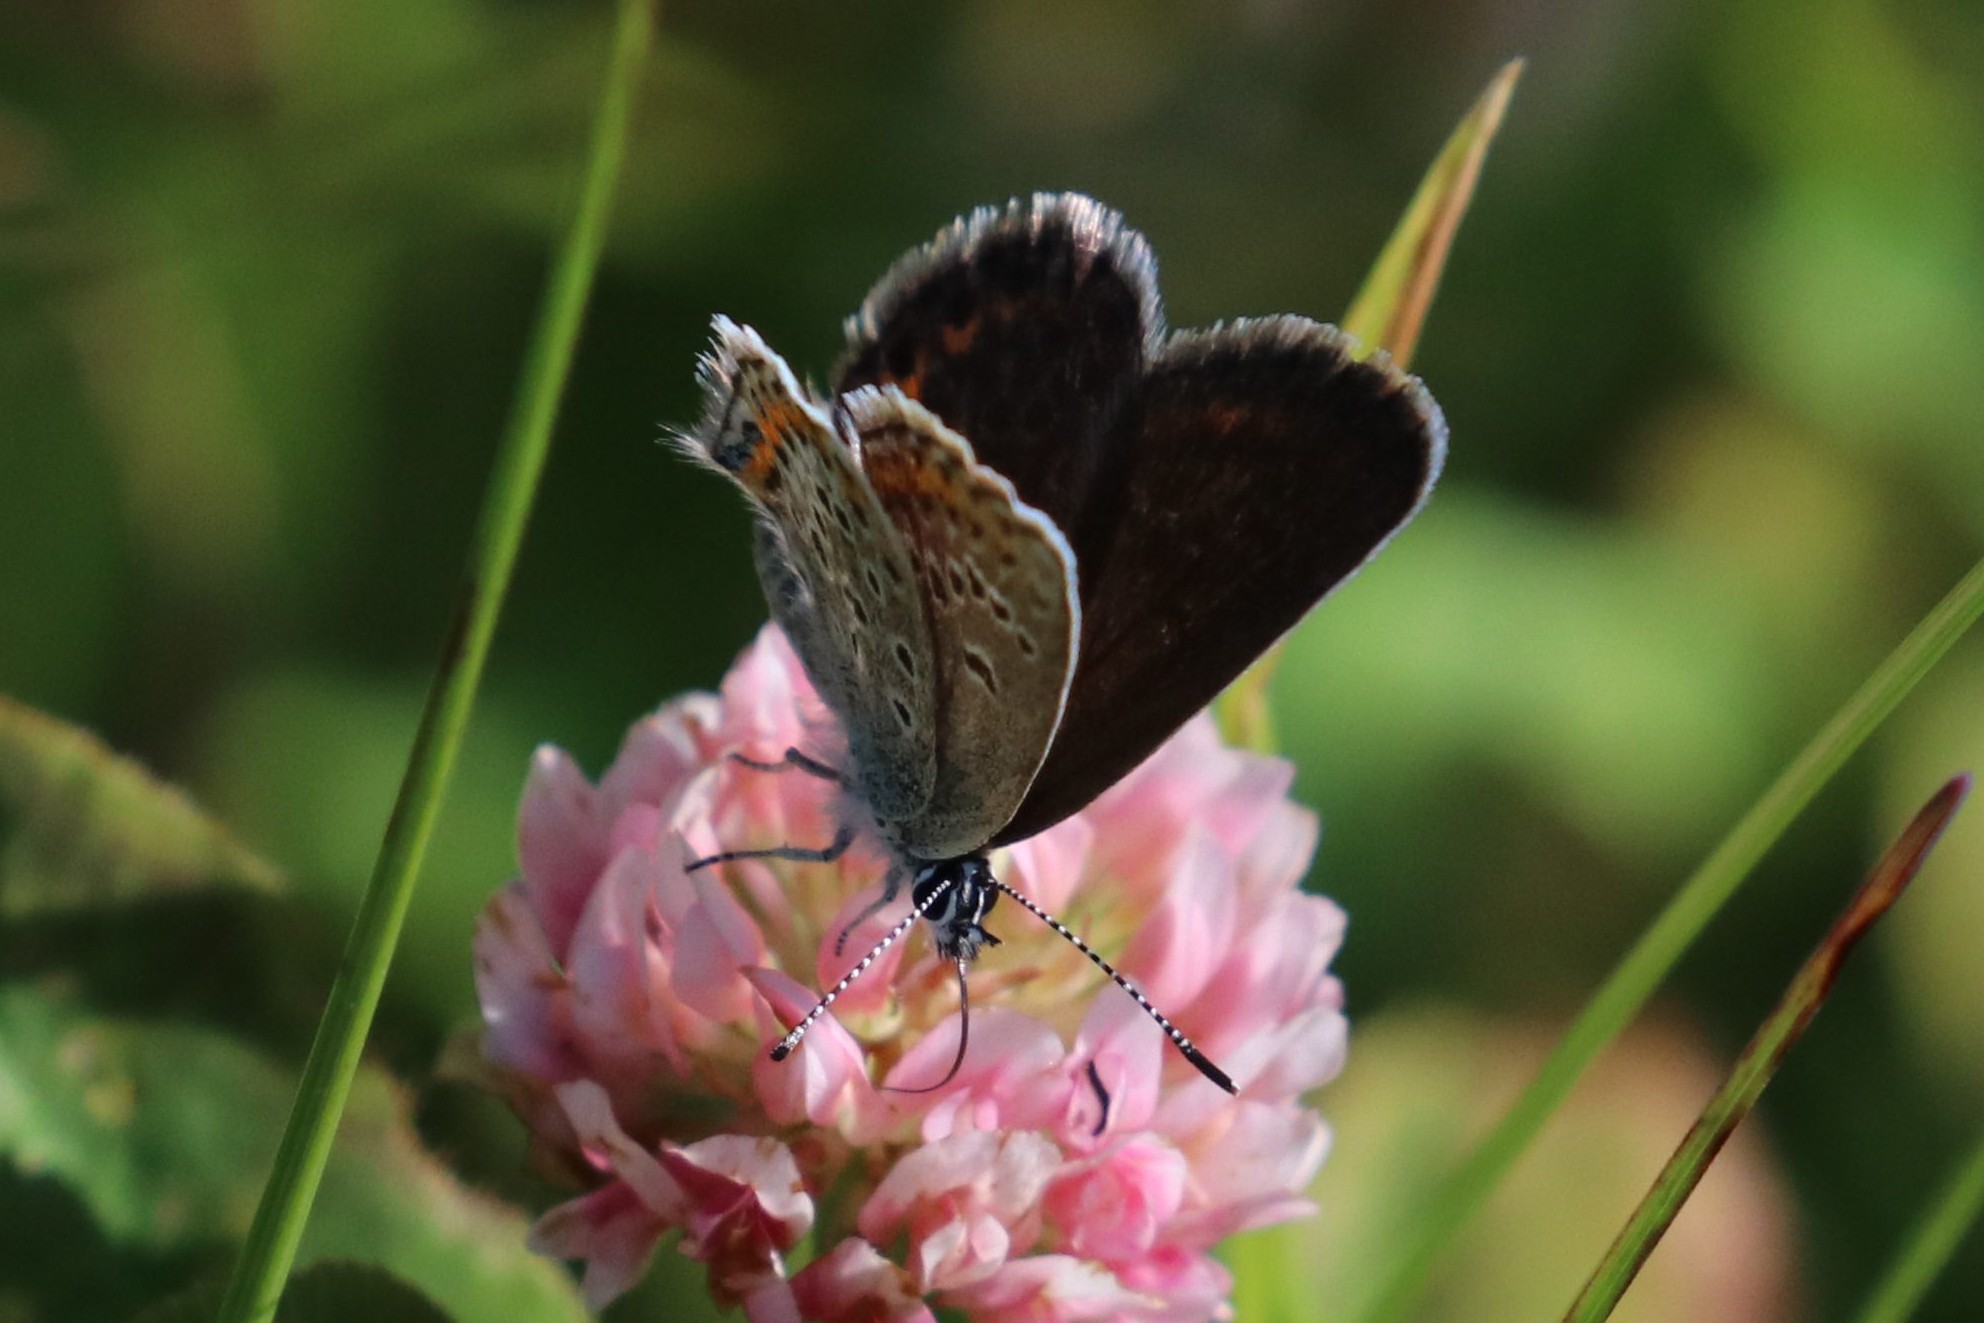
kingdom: Animalia
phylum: Arthropoda
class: Insecta
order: Lepidoptera
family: Lycaenidae
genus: Plebejus
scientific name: Plebejus argus
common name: Silver-studded blue
